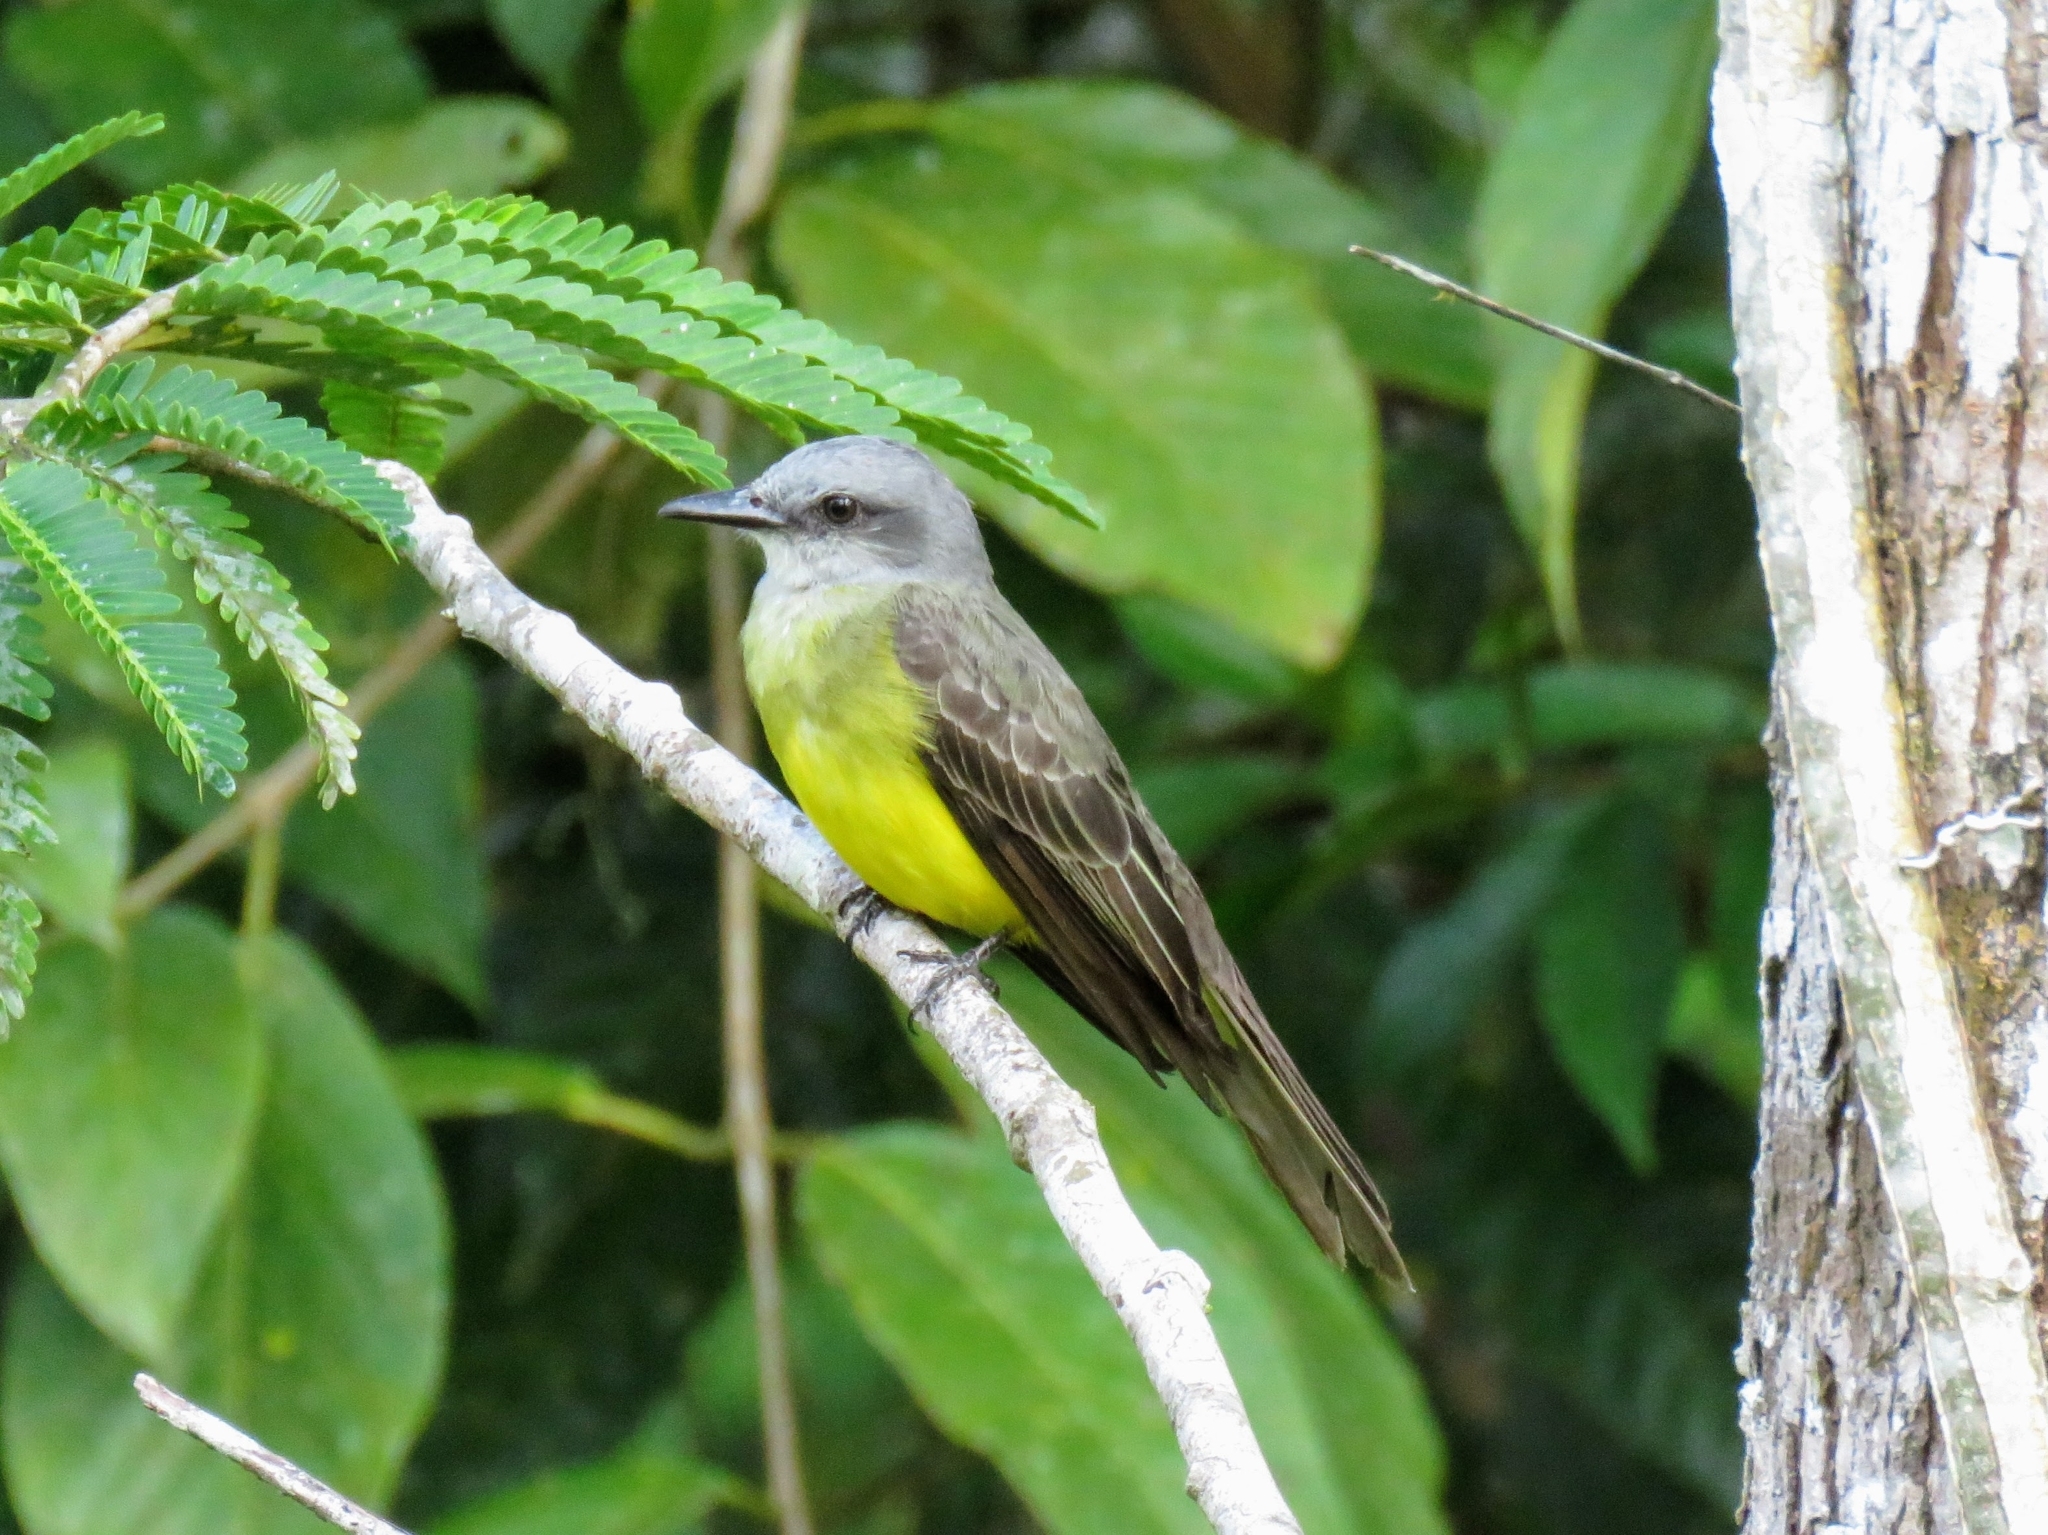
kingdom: Animalia
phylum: Chordata
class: Aves
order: Passeriformes
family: Tyrannidae
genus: Tyrannus
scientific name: Tyrannus melancholicus
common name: Tropical kingbird
